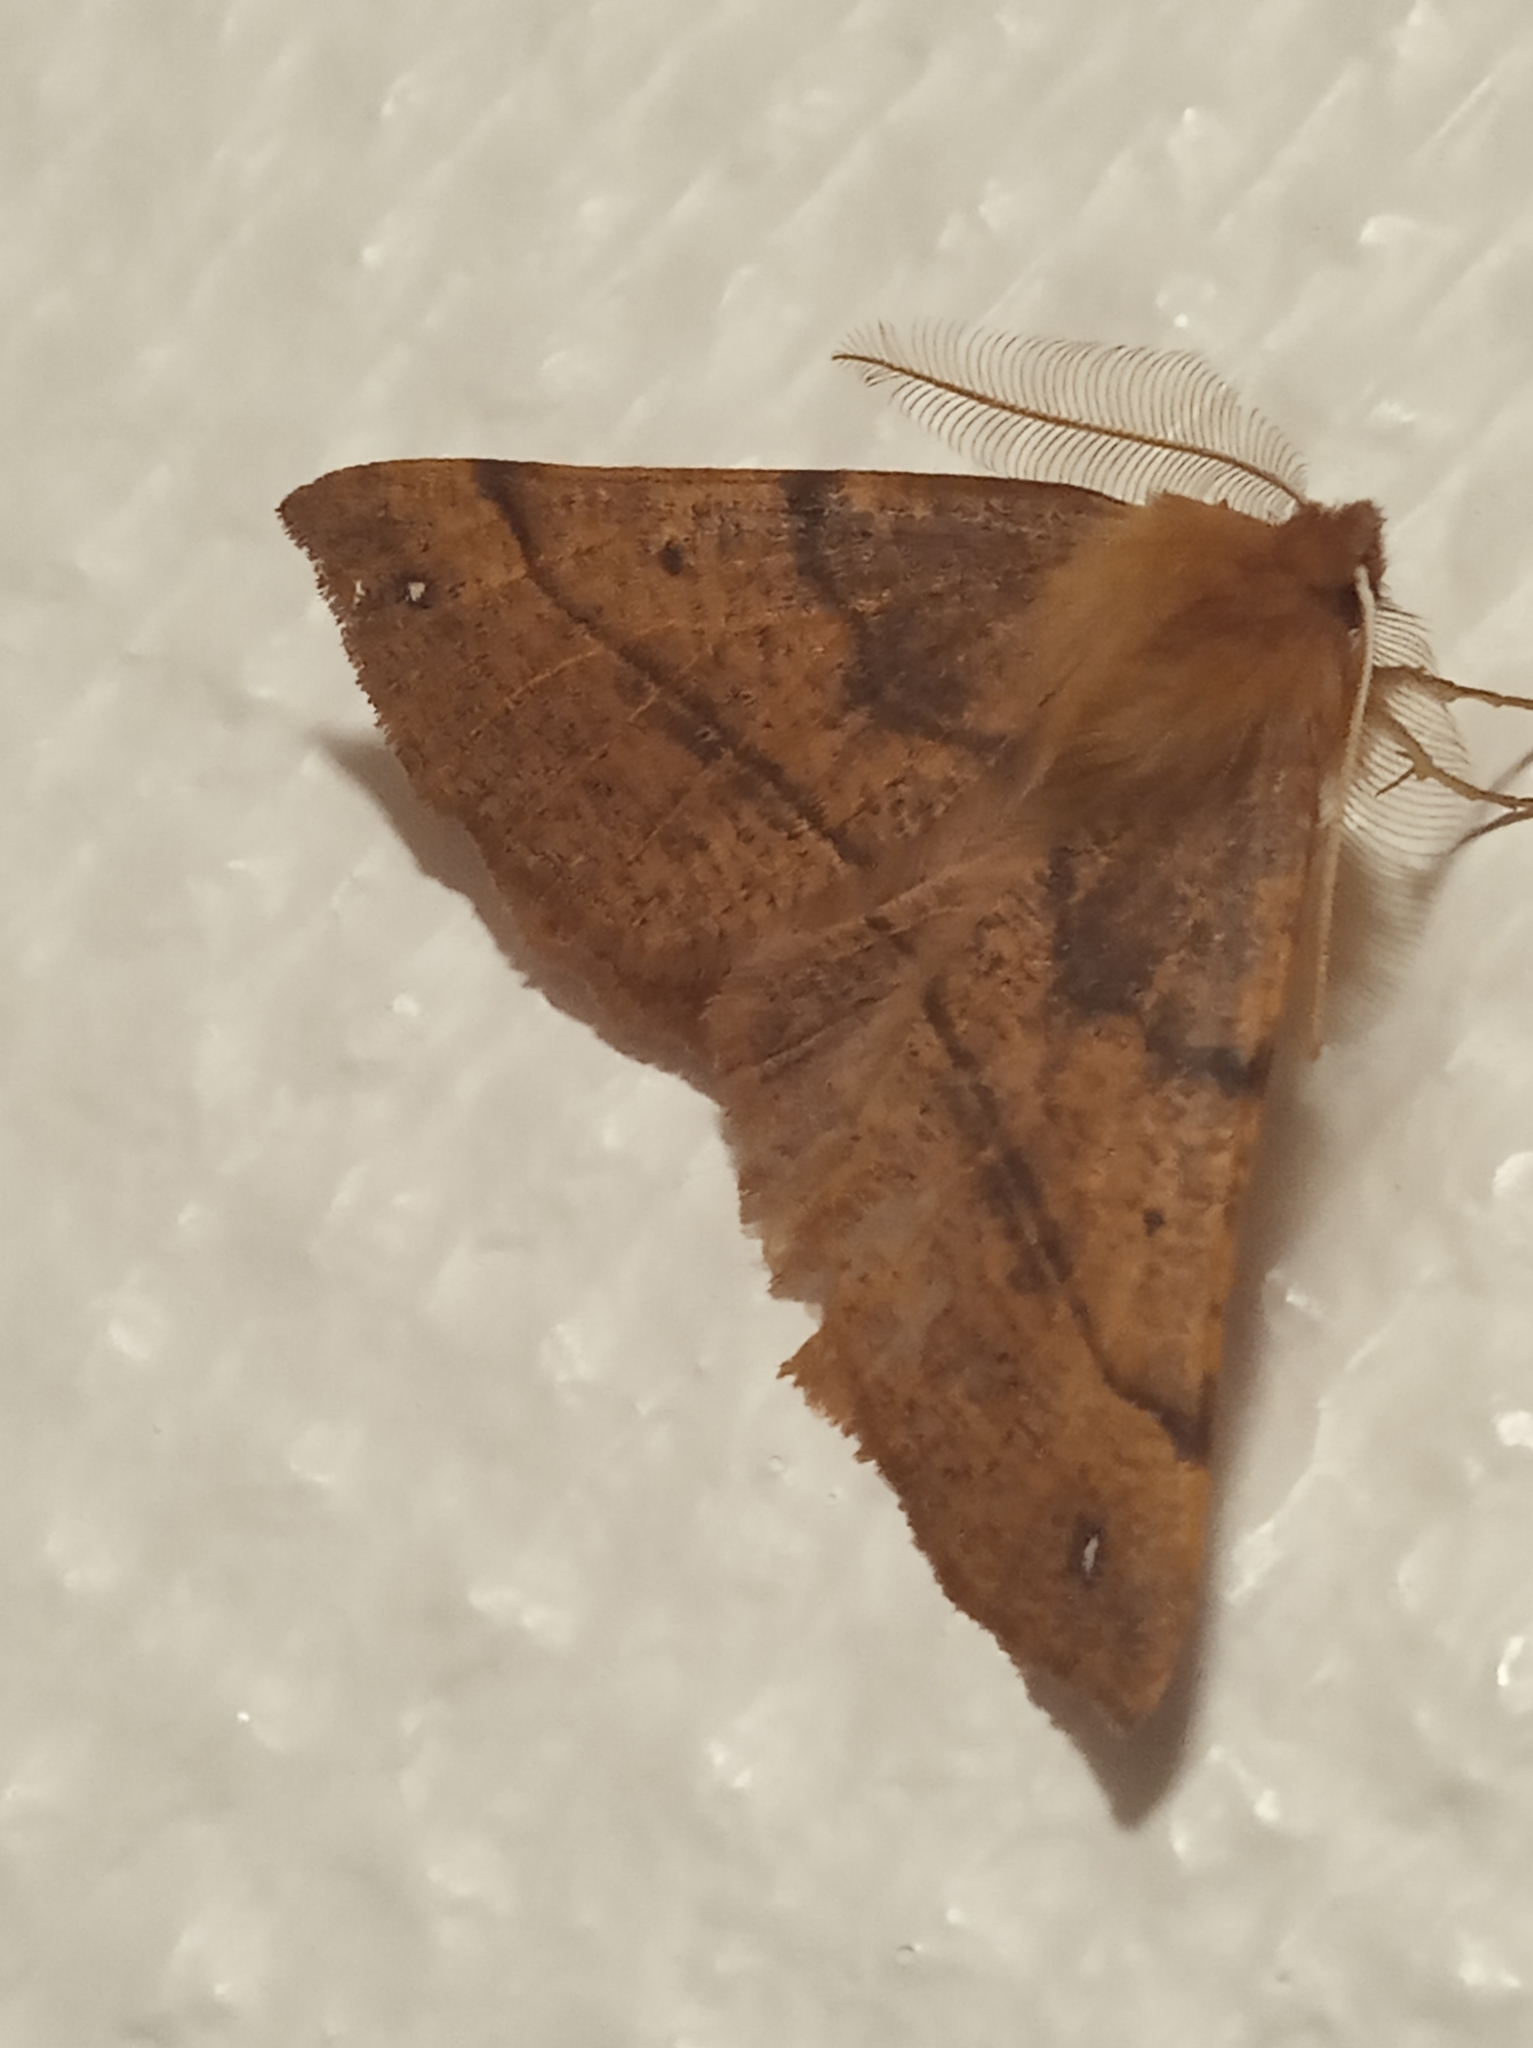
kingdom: Animalia
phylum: Arthropoda
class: Insecta
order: Lepidoptera
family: Geometridae
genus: Colotois
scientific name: Colotois pennaria
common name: Feathered thorn
